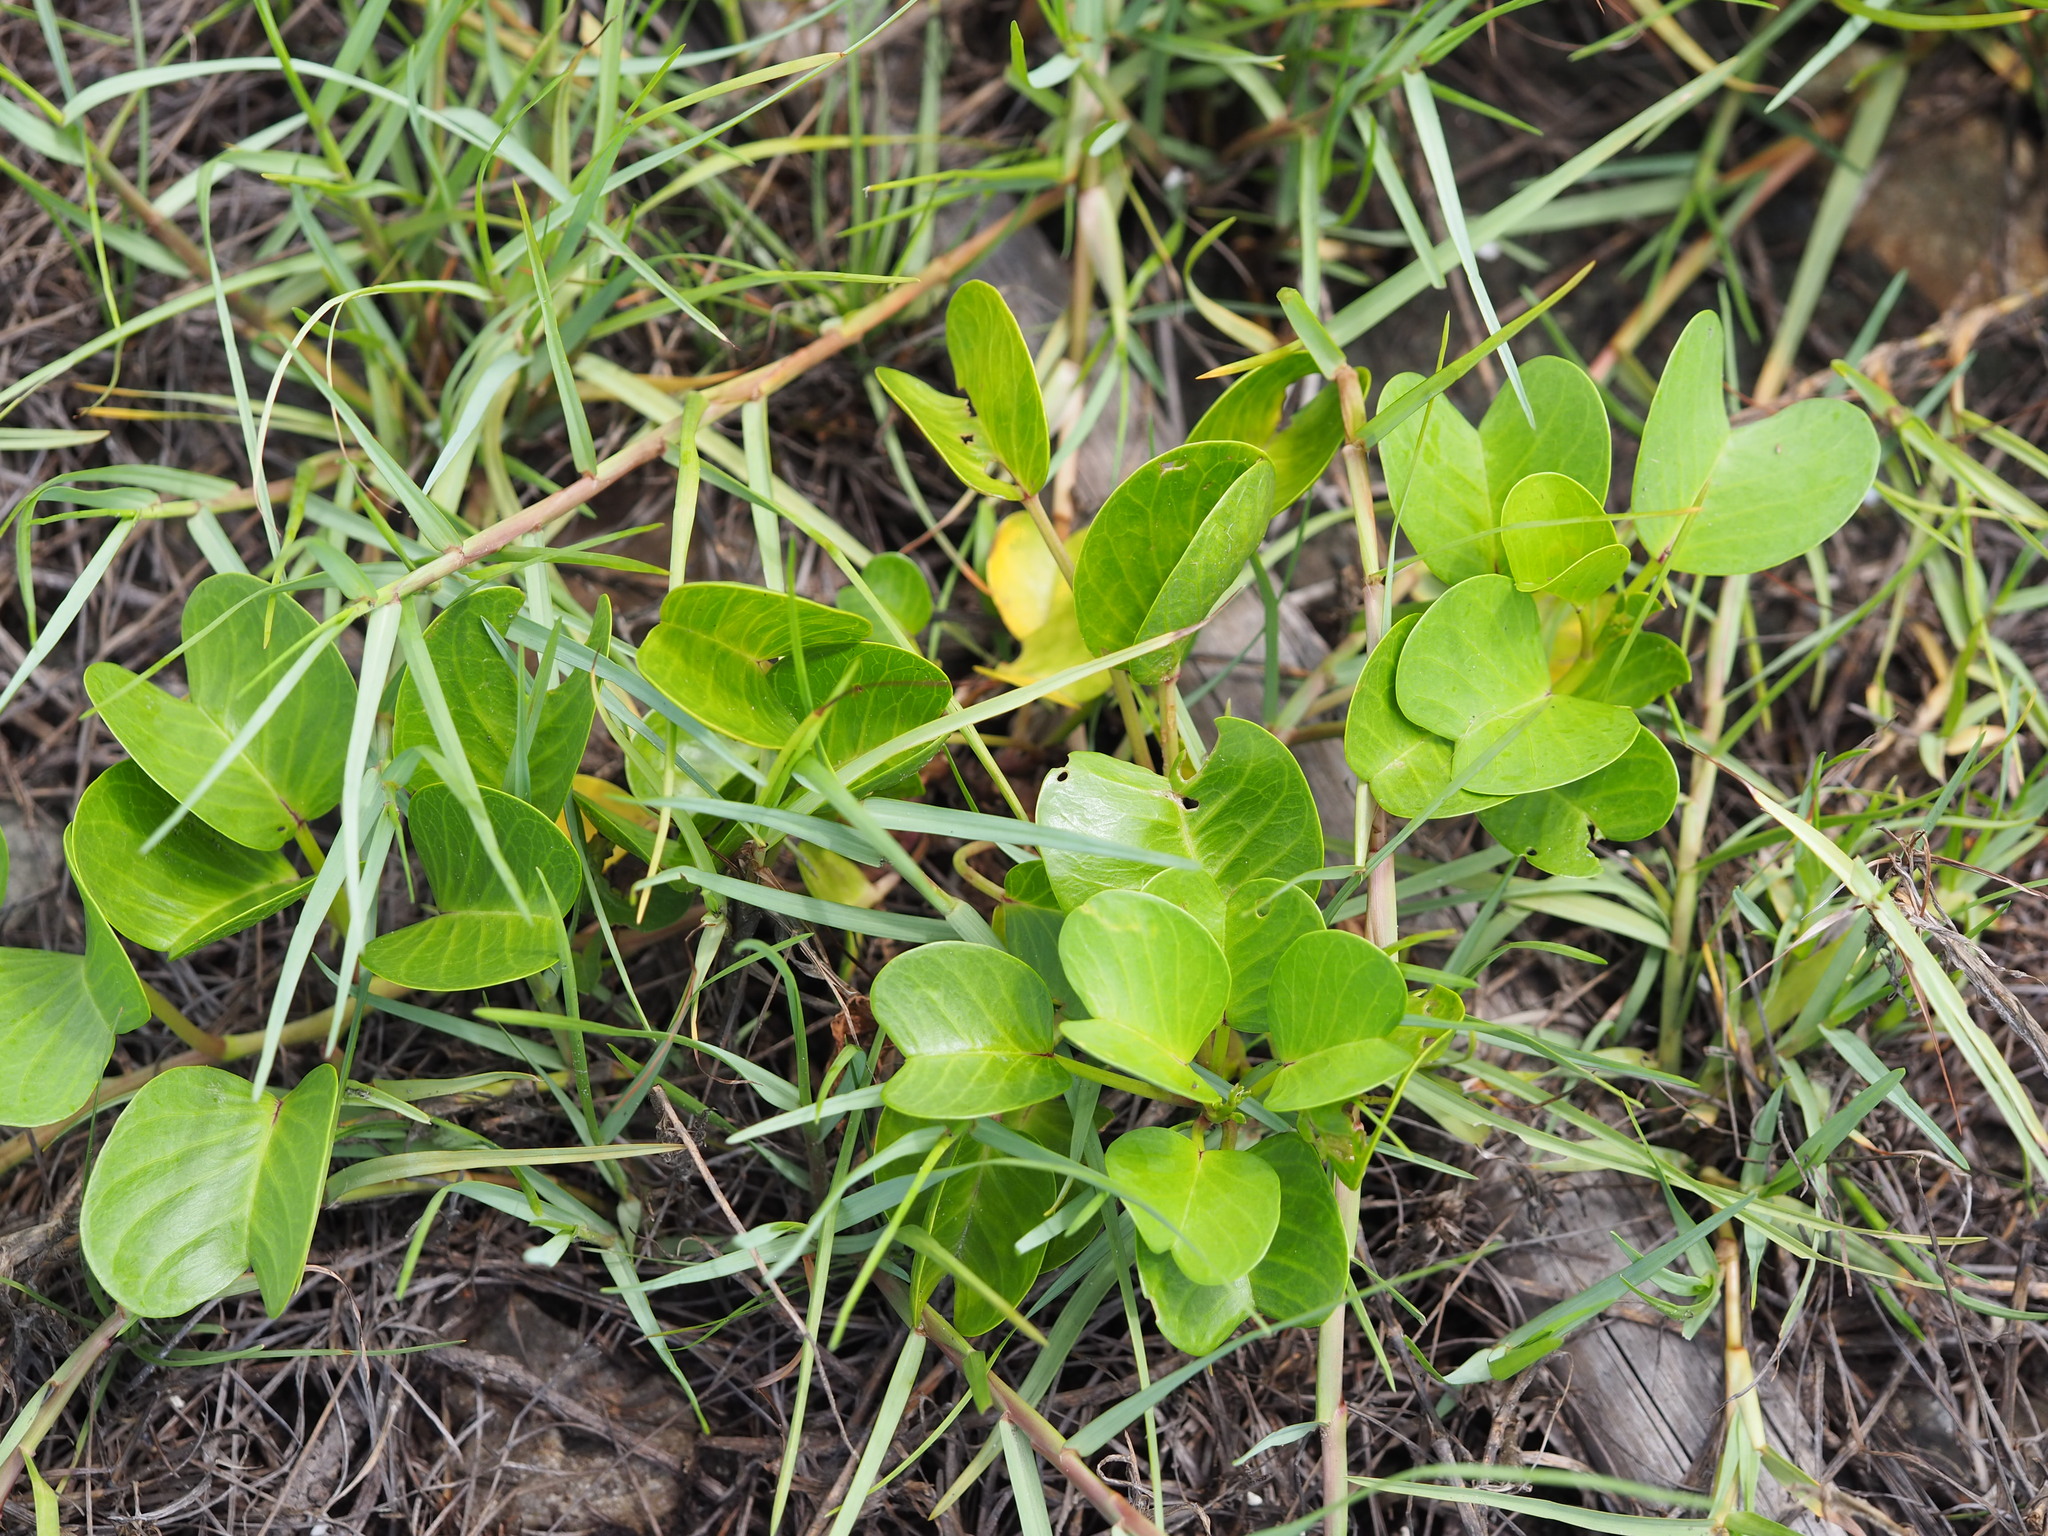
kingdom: Plantae
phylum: Tracheophyta
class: Magnoliopsida
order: Solanales
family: Convolvulaceae
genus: Ipomoea
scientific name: Ipomoea pes-caprae
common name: Beach morning glory
